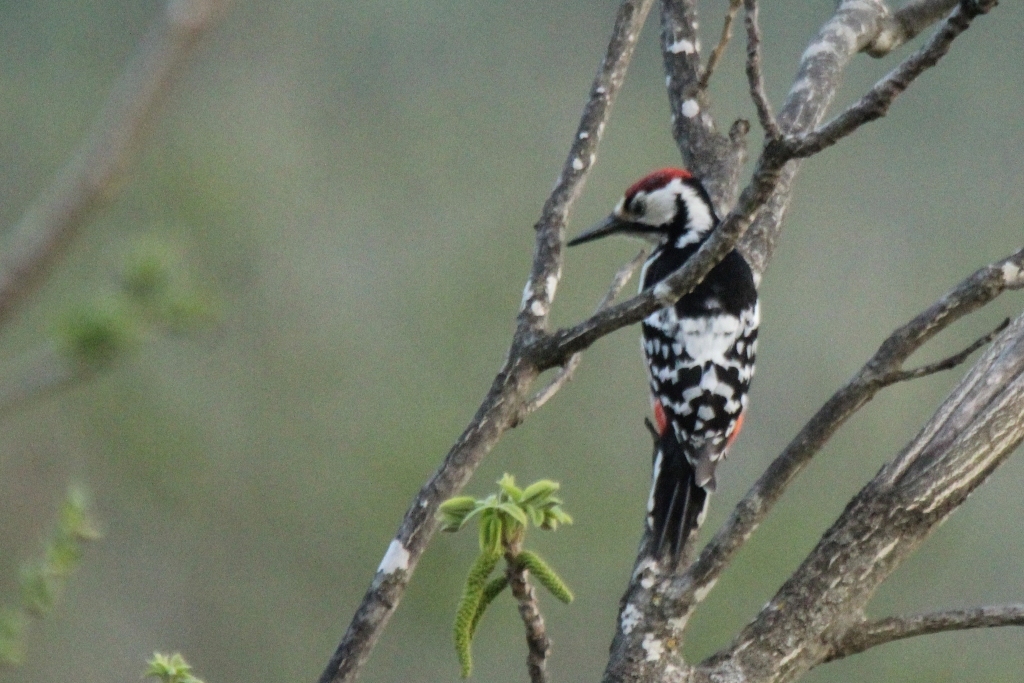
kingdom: Animalia
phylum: Chordata
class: Aves
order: Piciformes
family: Picidae
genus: Dendrocopos
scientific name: Dendrocopos leucotos
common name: White-backed woodpecker
